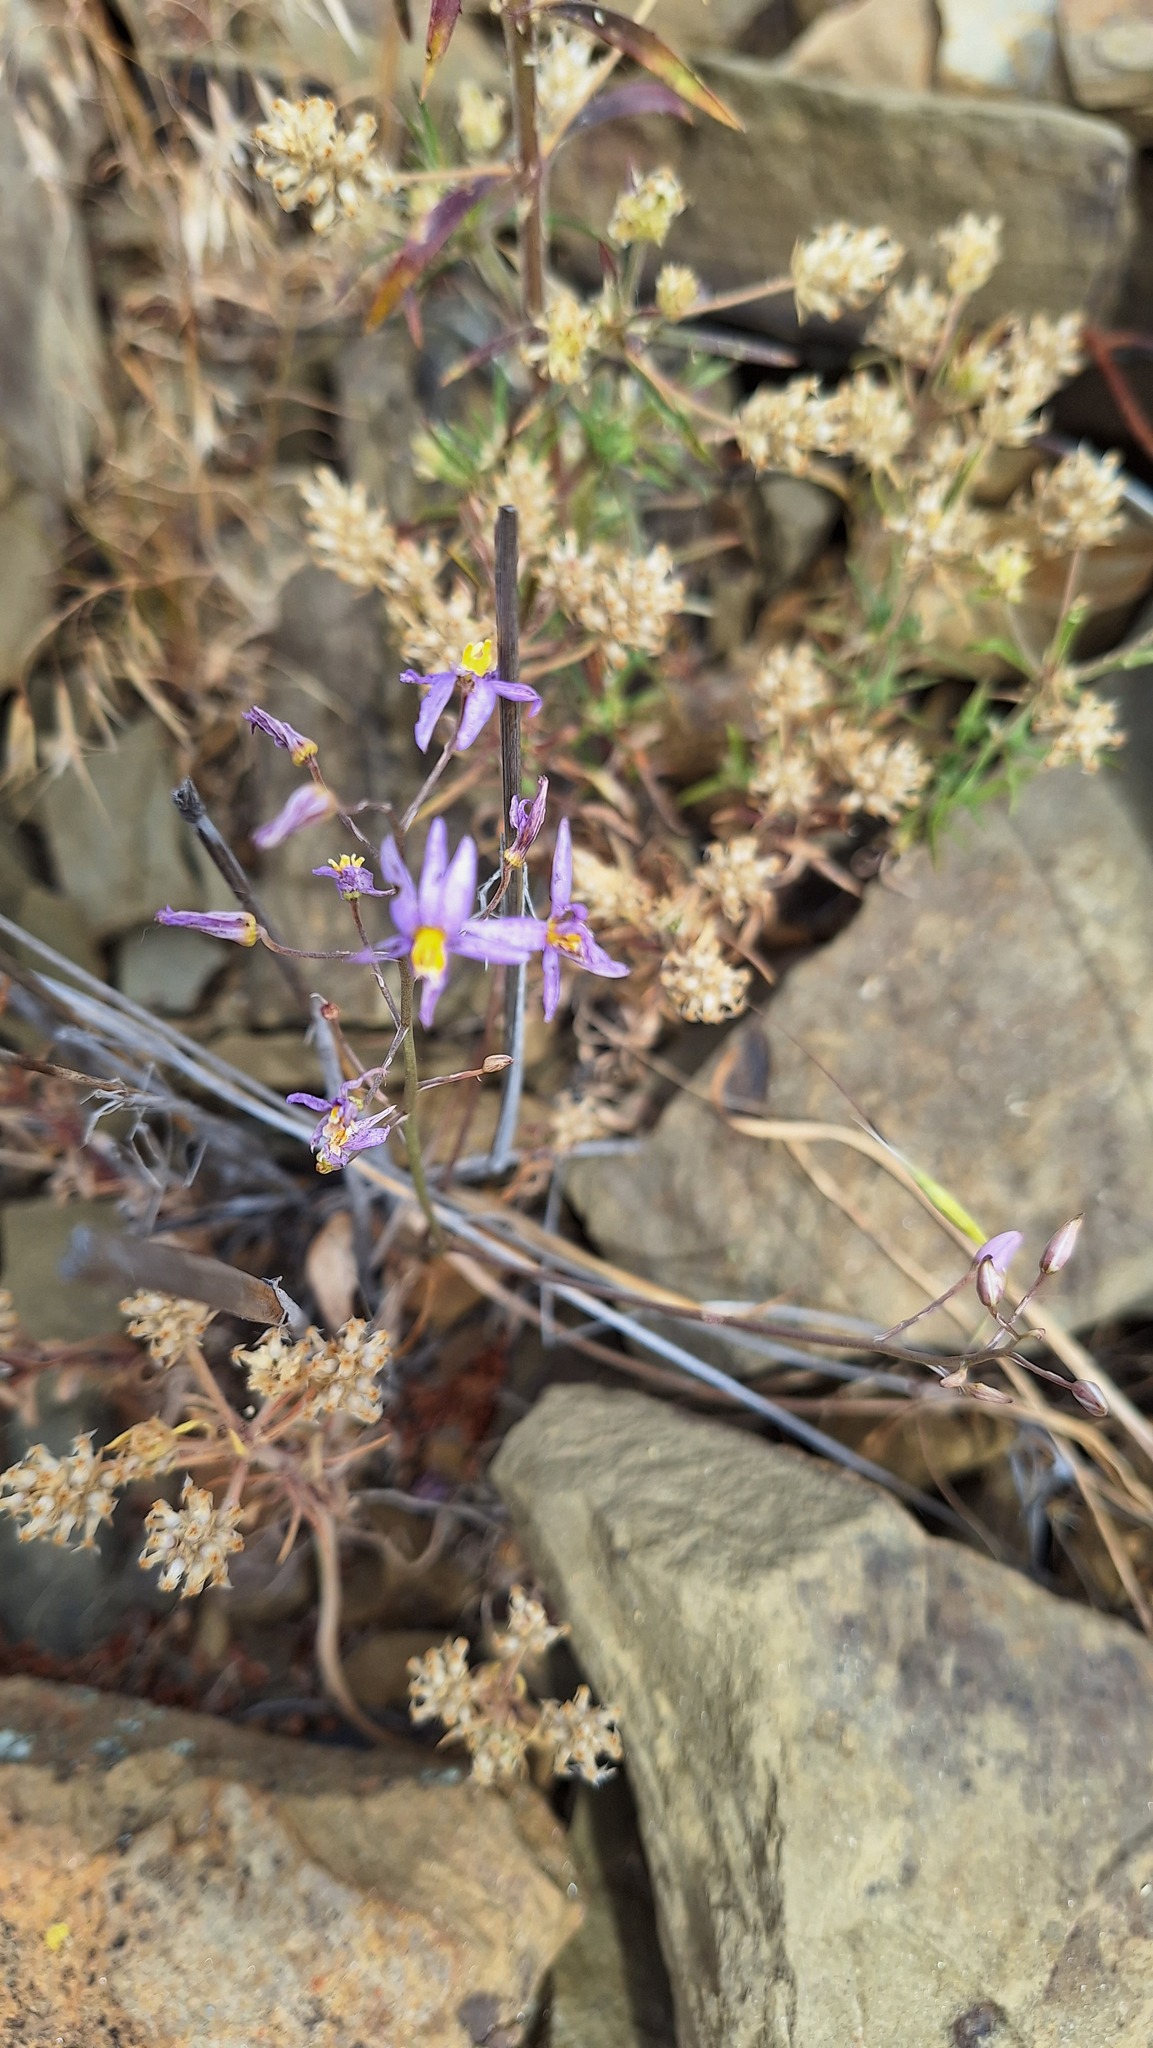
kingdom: Plantae
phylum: Tracheophyta
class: Liliopsida
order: Asparagales
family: Tecophilaeaceae
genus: Cyanella
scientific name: Cyanella hyacinthoides
